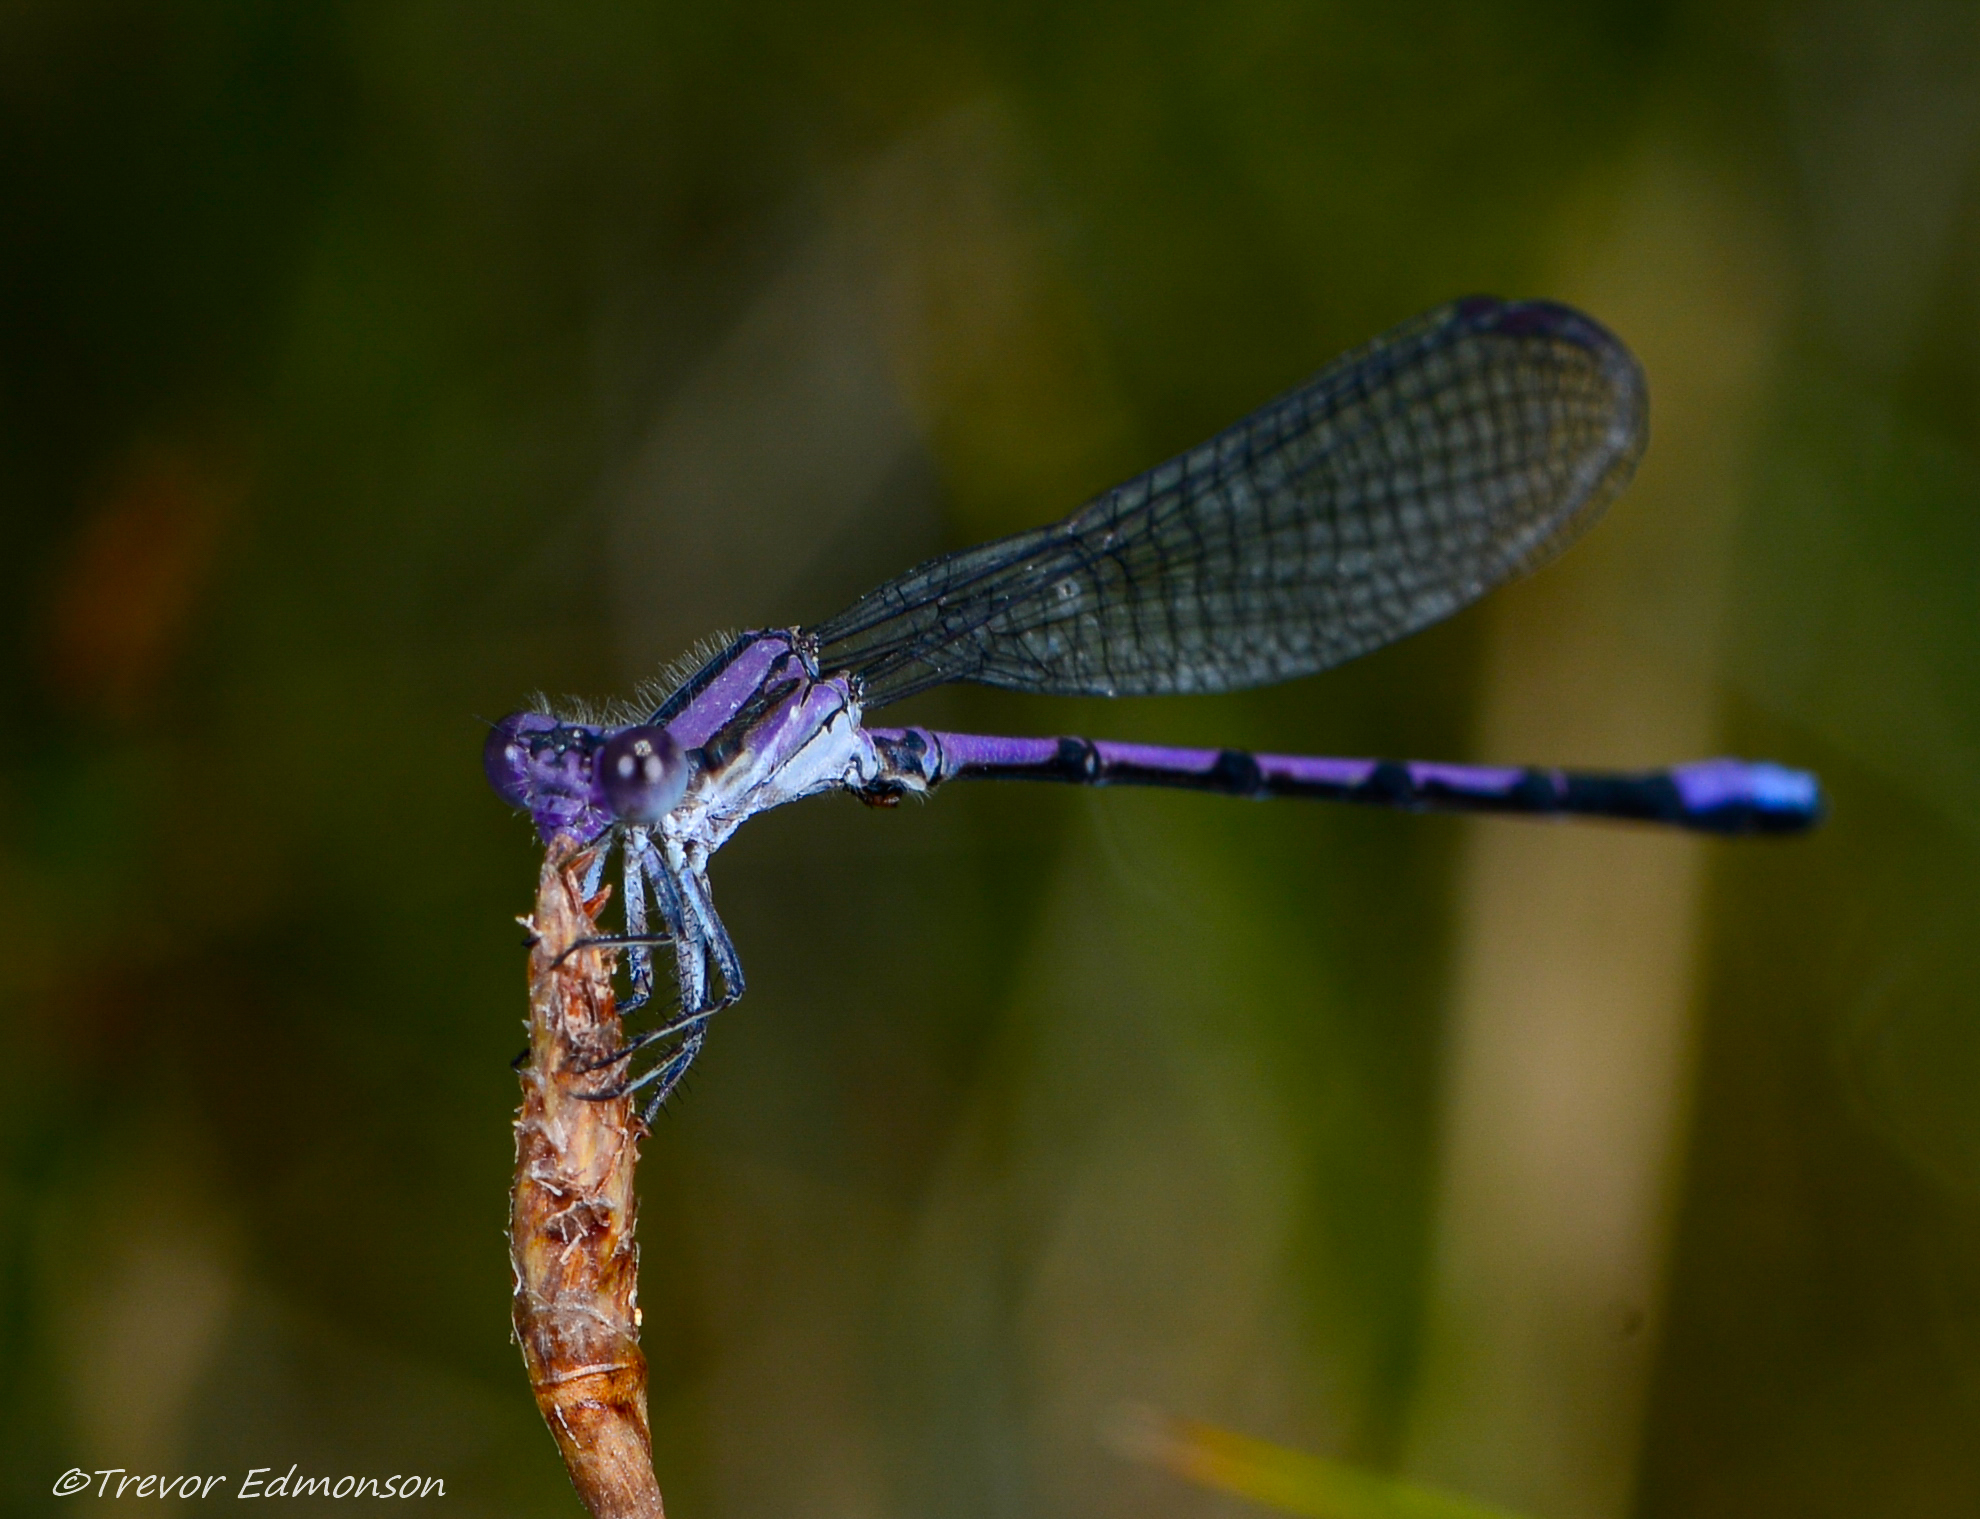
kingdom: Animalia
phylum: Arthropoda
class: Insecta
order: Odonata
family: Coenagrionidae
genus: Argia
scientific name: Argia fumipennis
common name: Variable dancer
